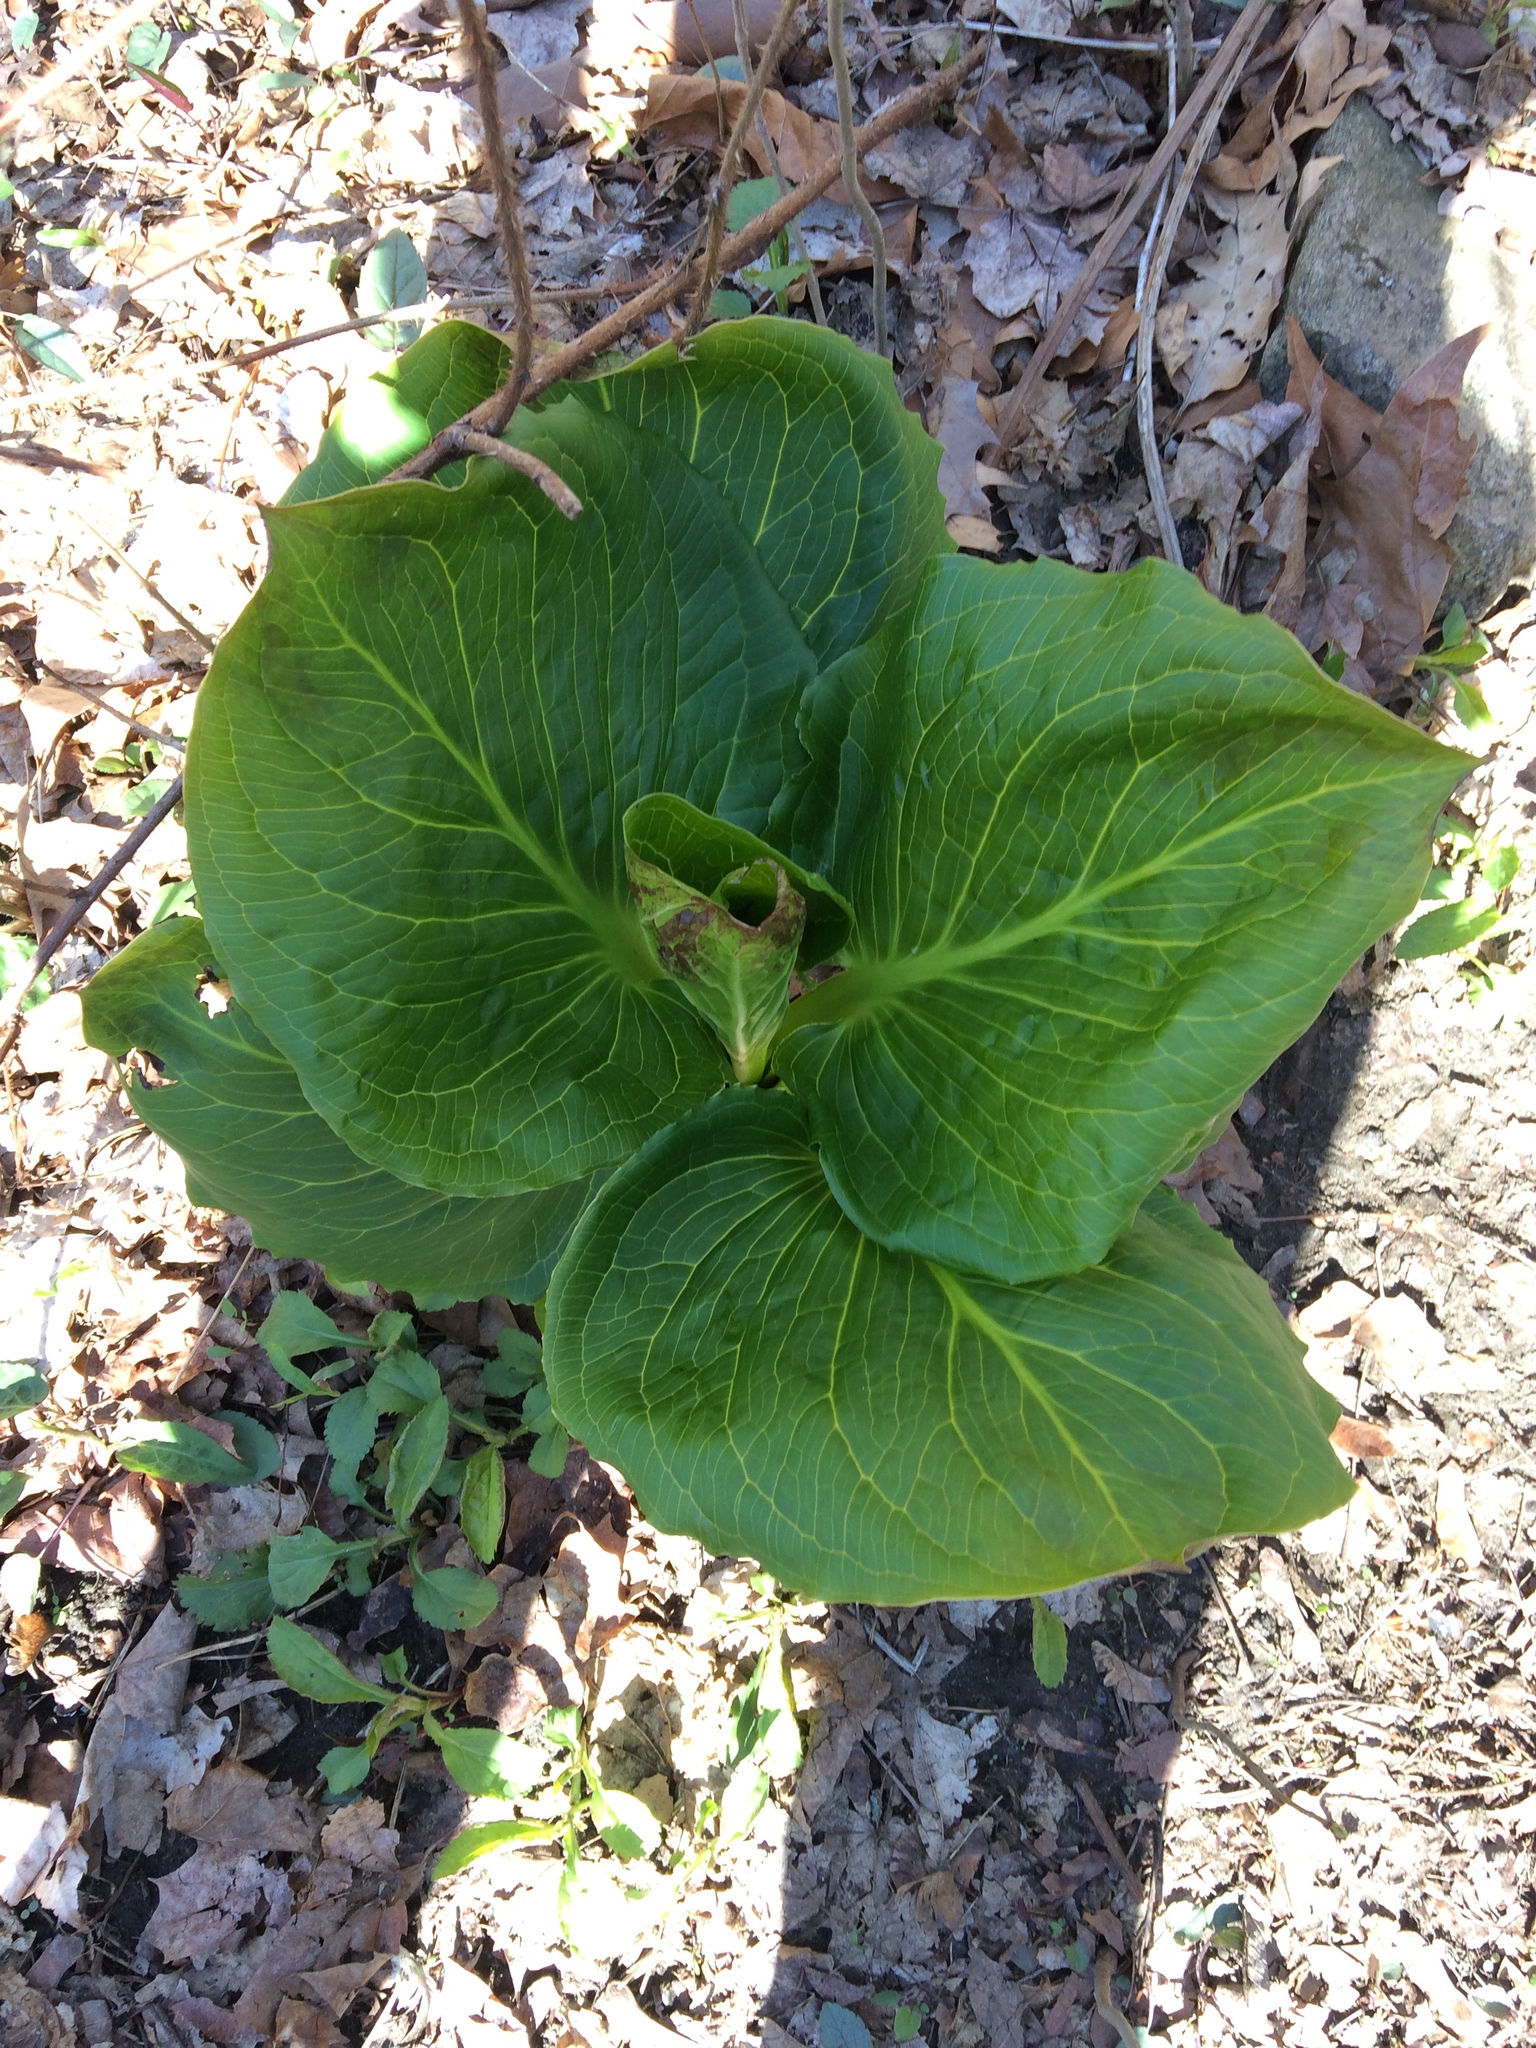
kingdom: Plantae
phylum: Tracheophyta
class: Liliopsida
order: Alismatales
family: Araceae
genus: Symplocarpus
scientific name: Symplocarpus foetidus
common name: Eastern skunk cabbage
